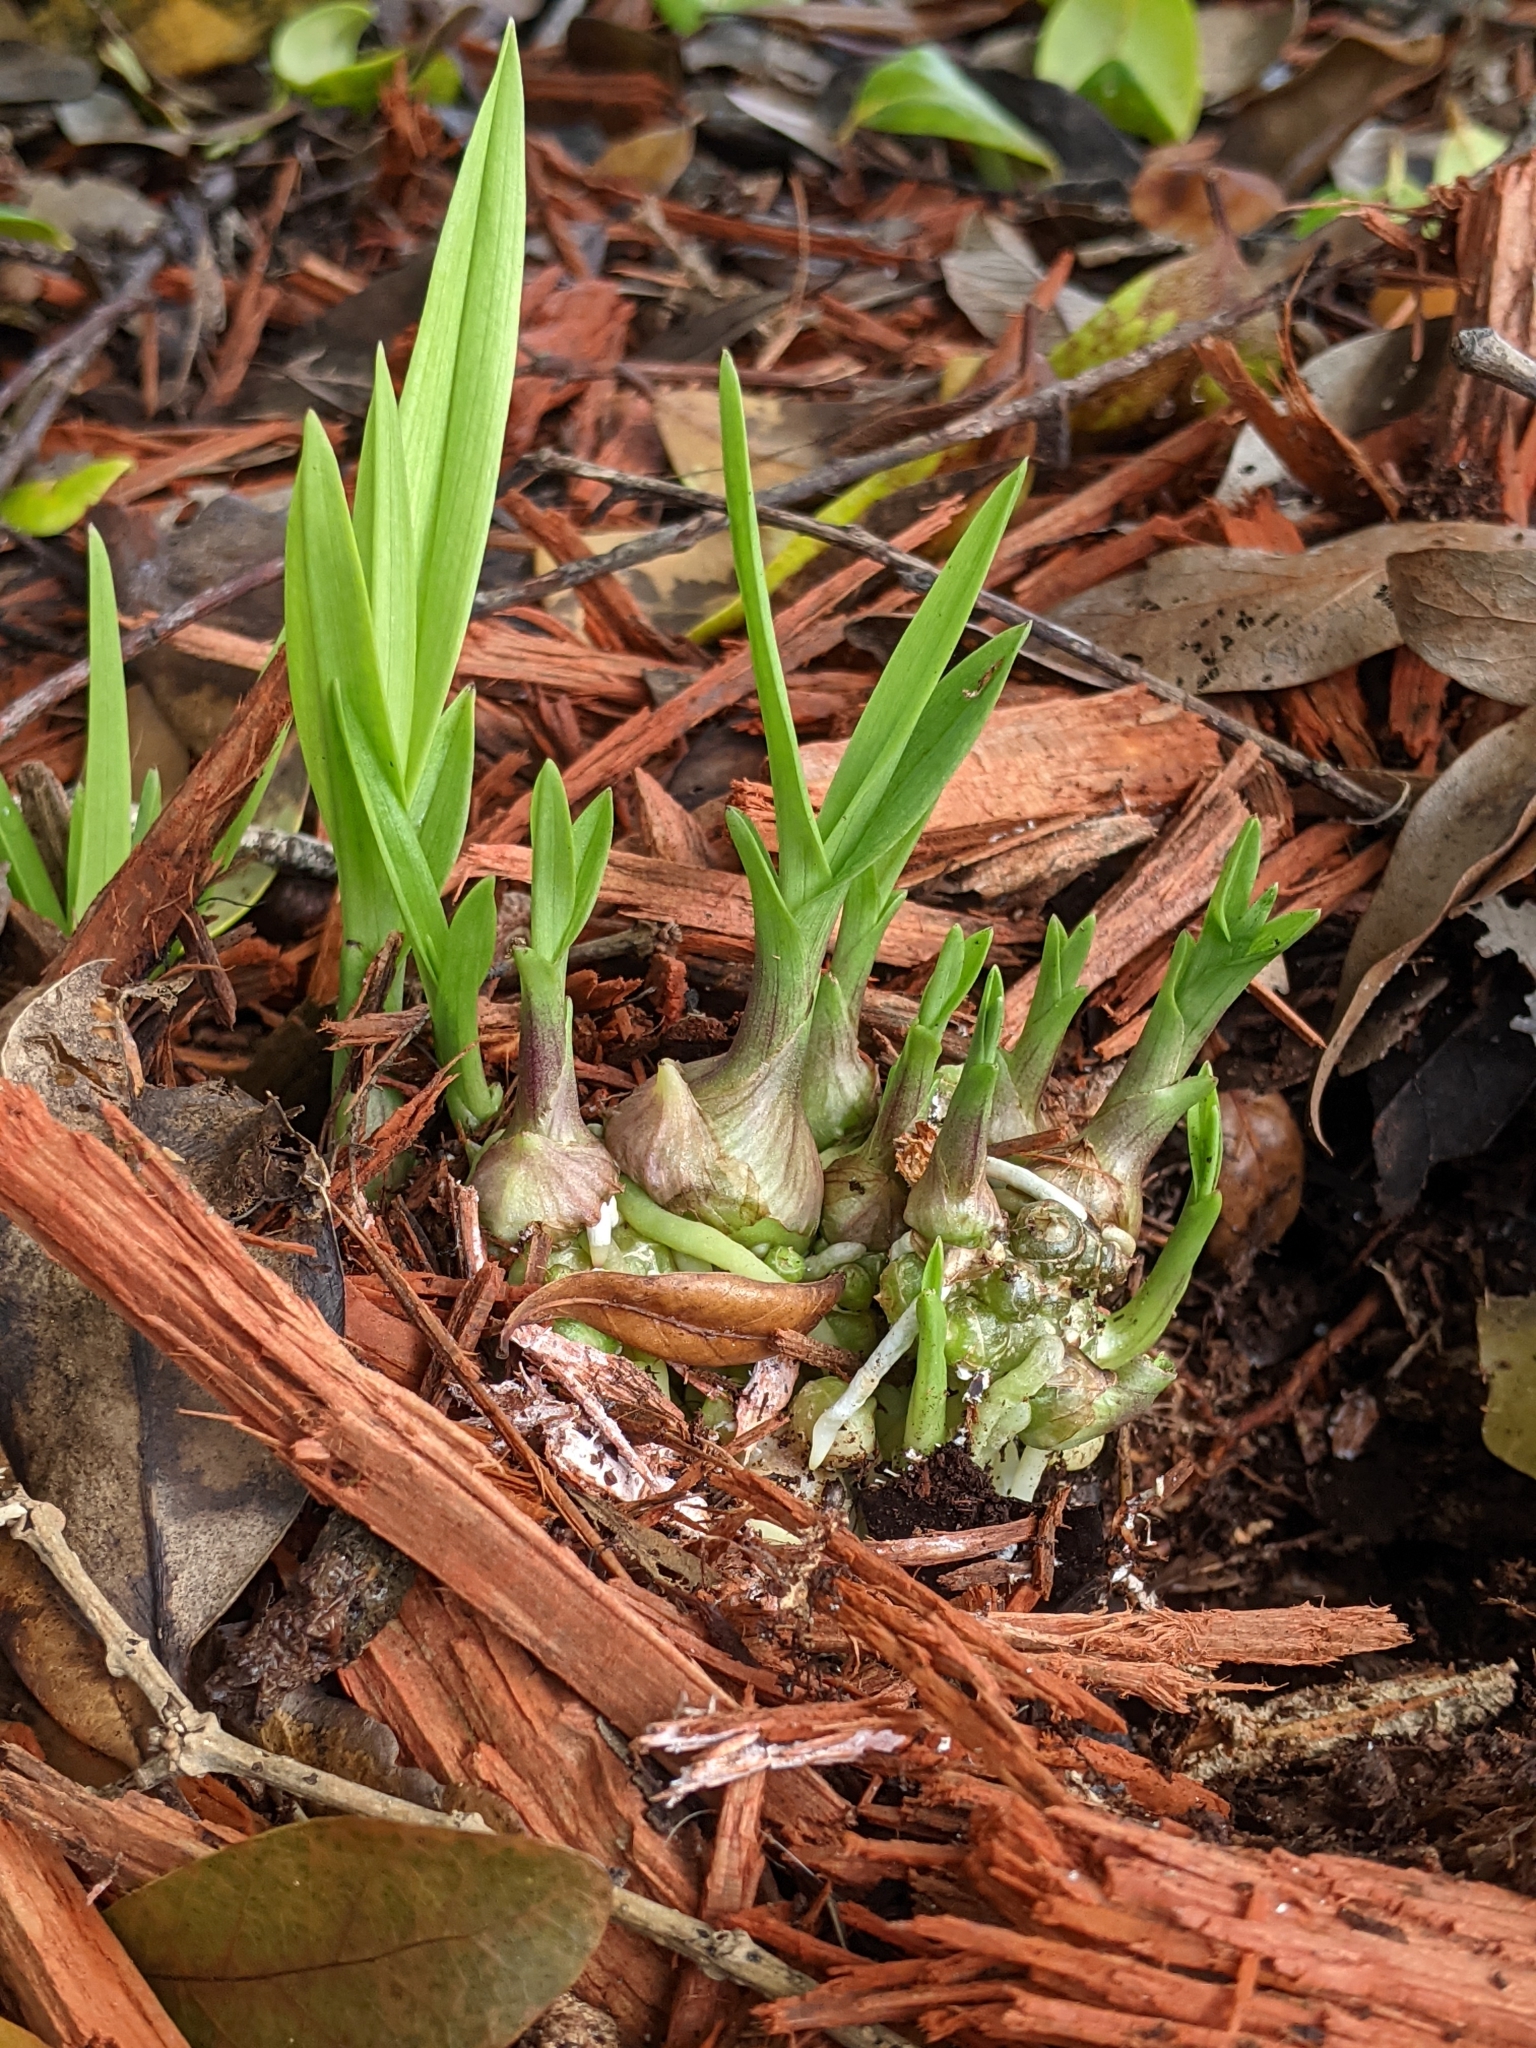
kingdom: Plantae
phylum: Tracheophyta
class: Liliopsida
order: Asparagales
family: Orchidaceae
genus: Eulophia
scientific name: Eulophia graminea
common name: Orchid
